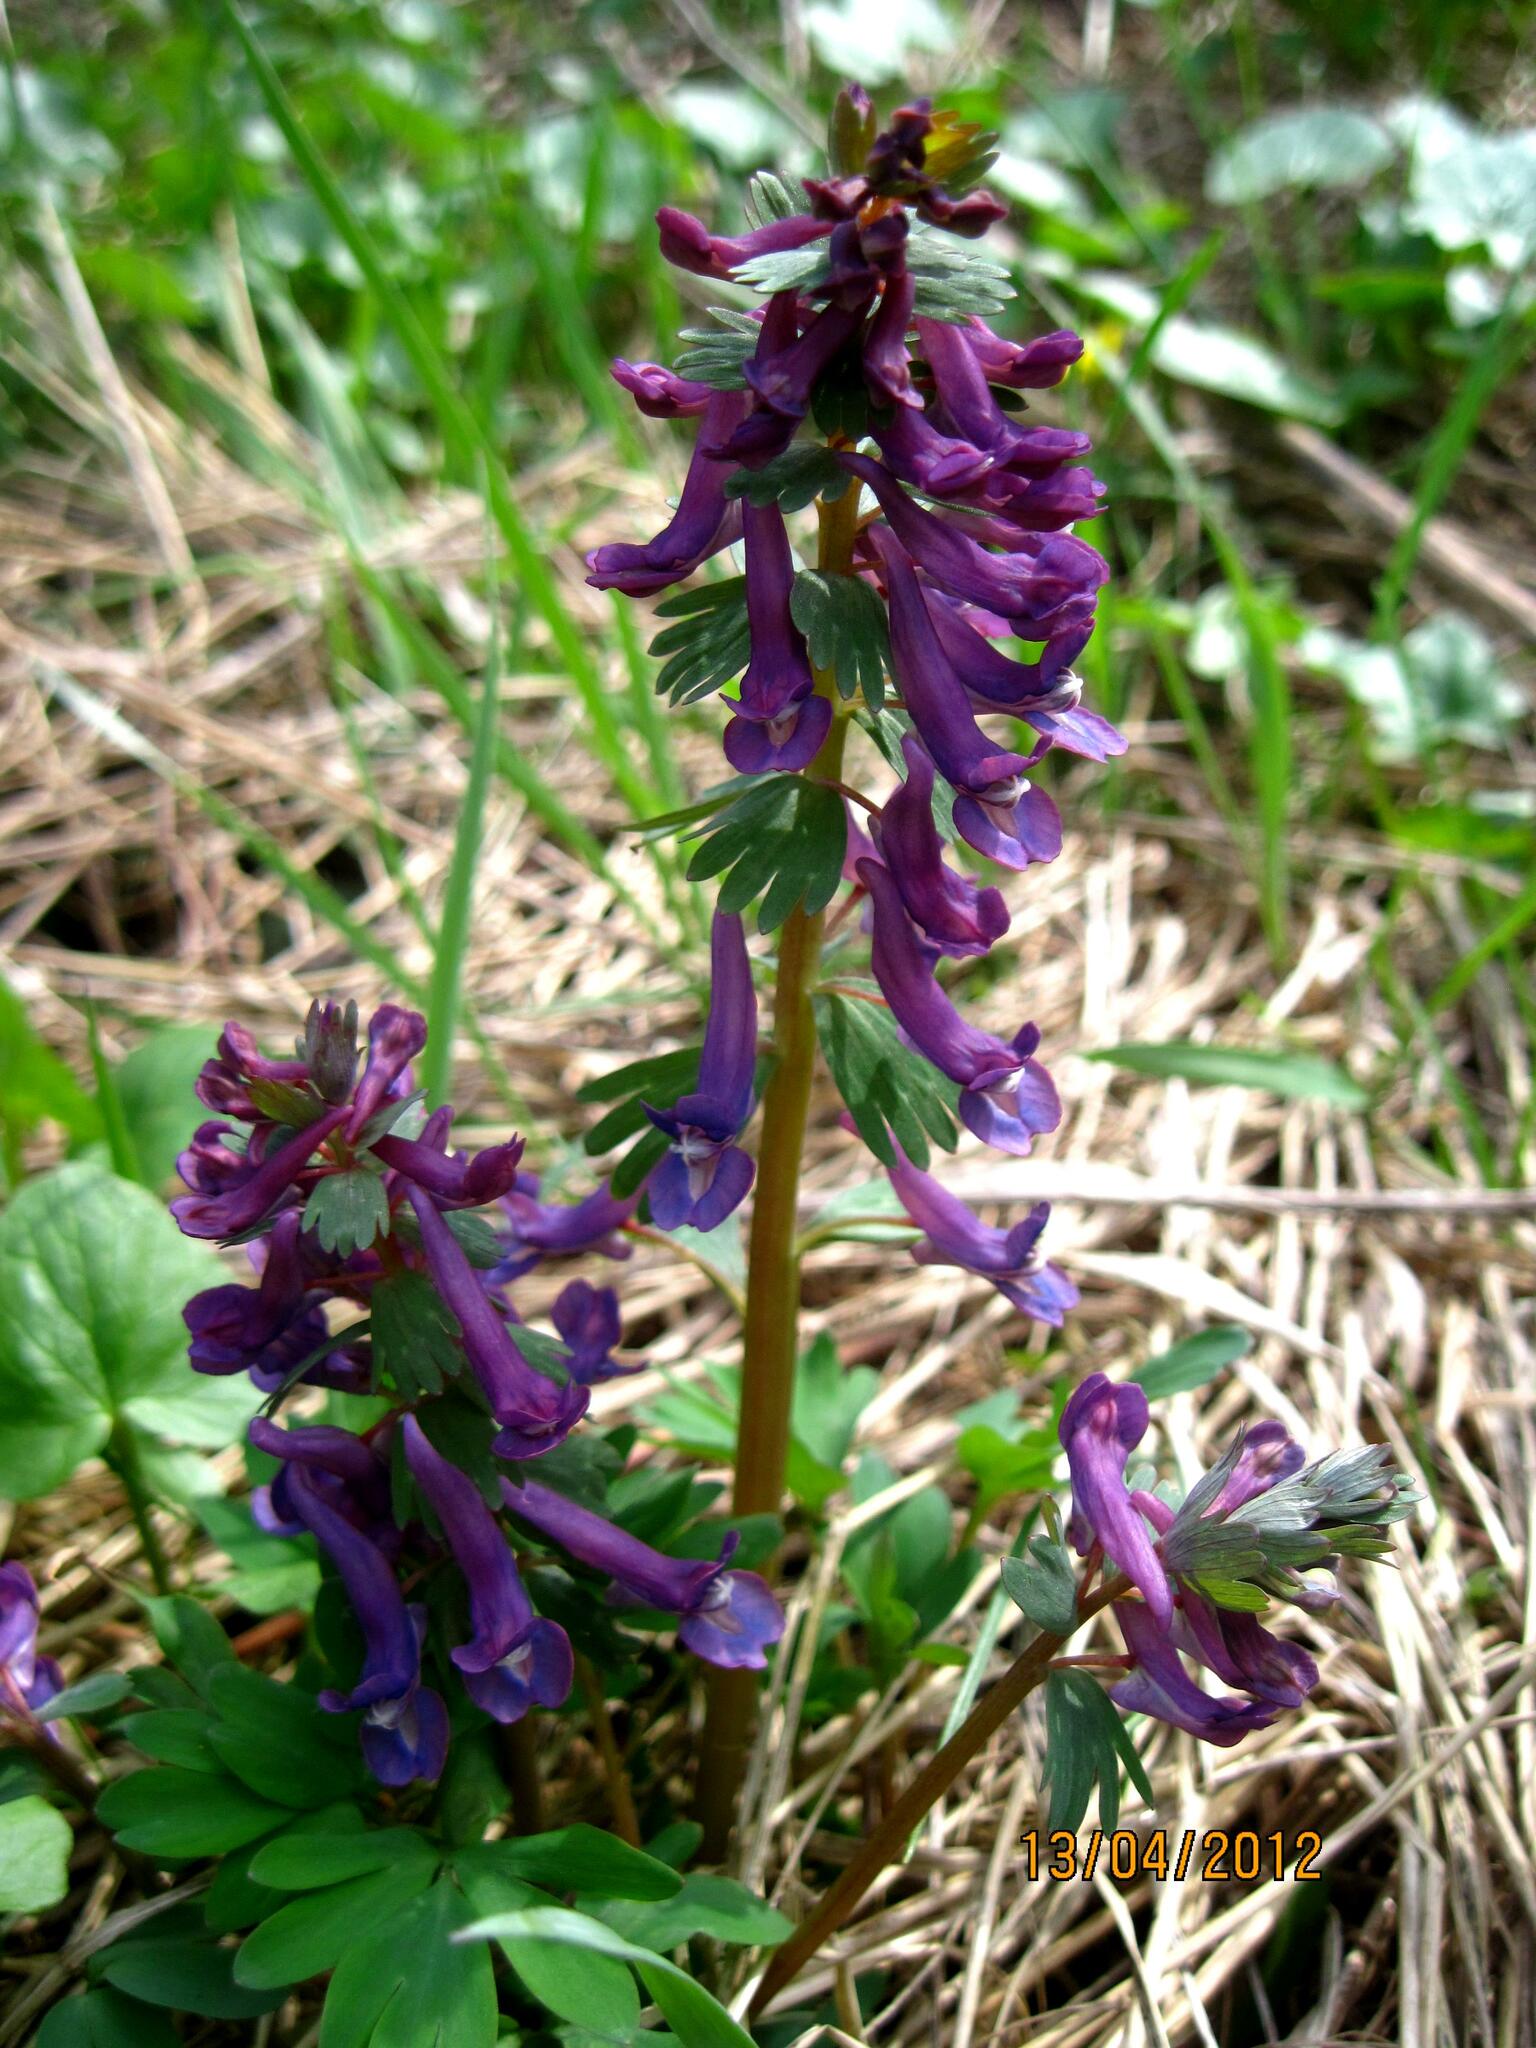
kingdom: Plantae
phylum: Tracheophyta
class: Magnoliopsida
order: Ranunculales
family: Papaveraceae
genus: Corydalis
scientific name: Corydalis solida
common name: Bird-in-a-bush
